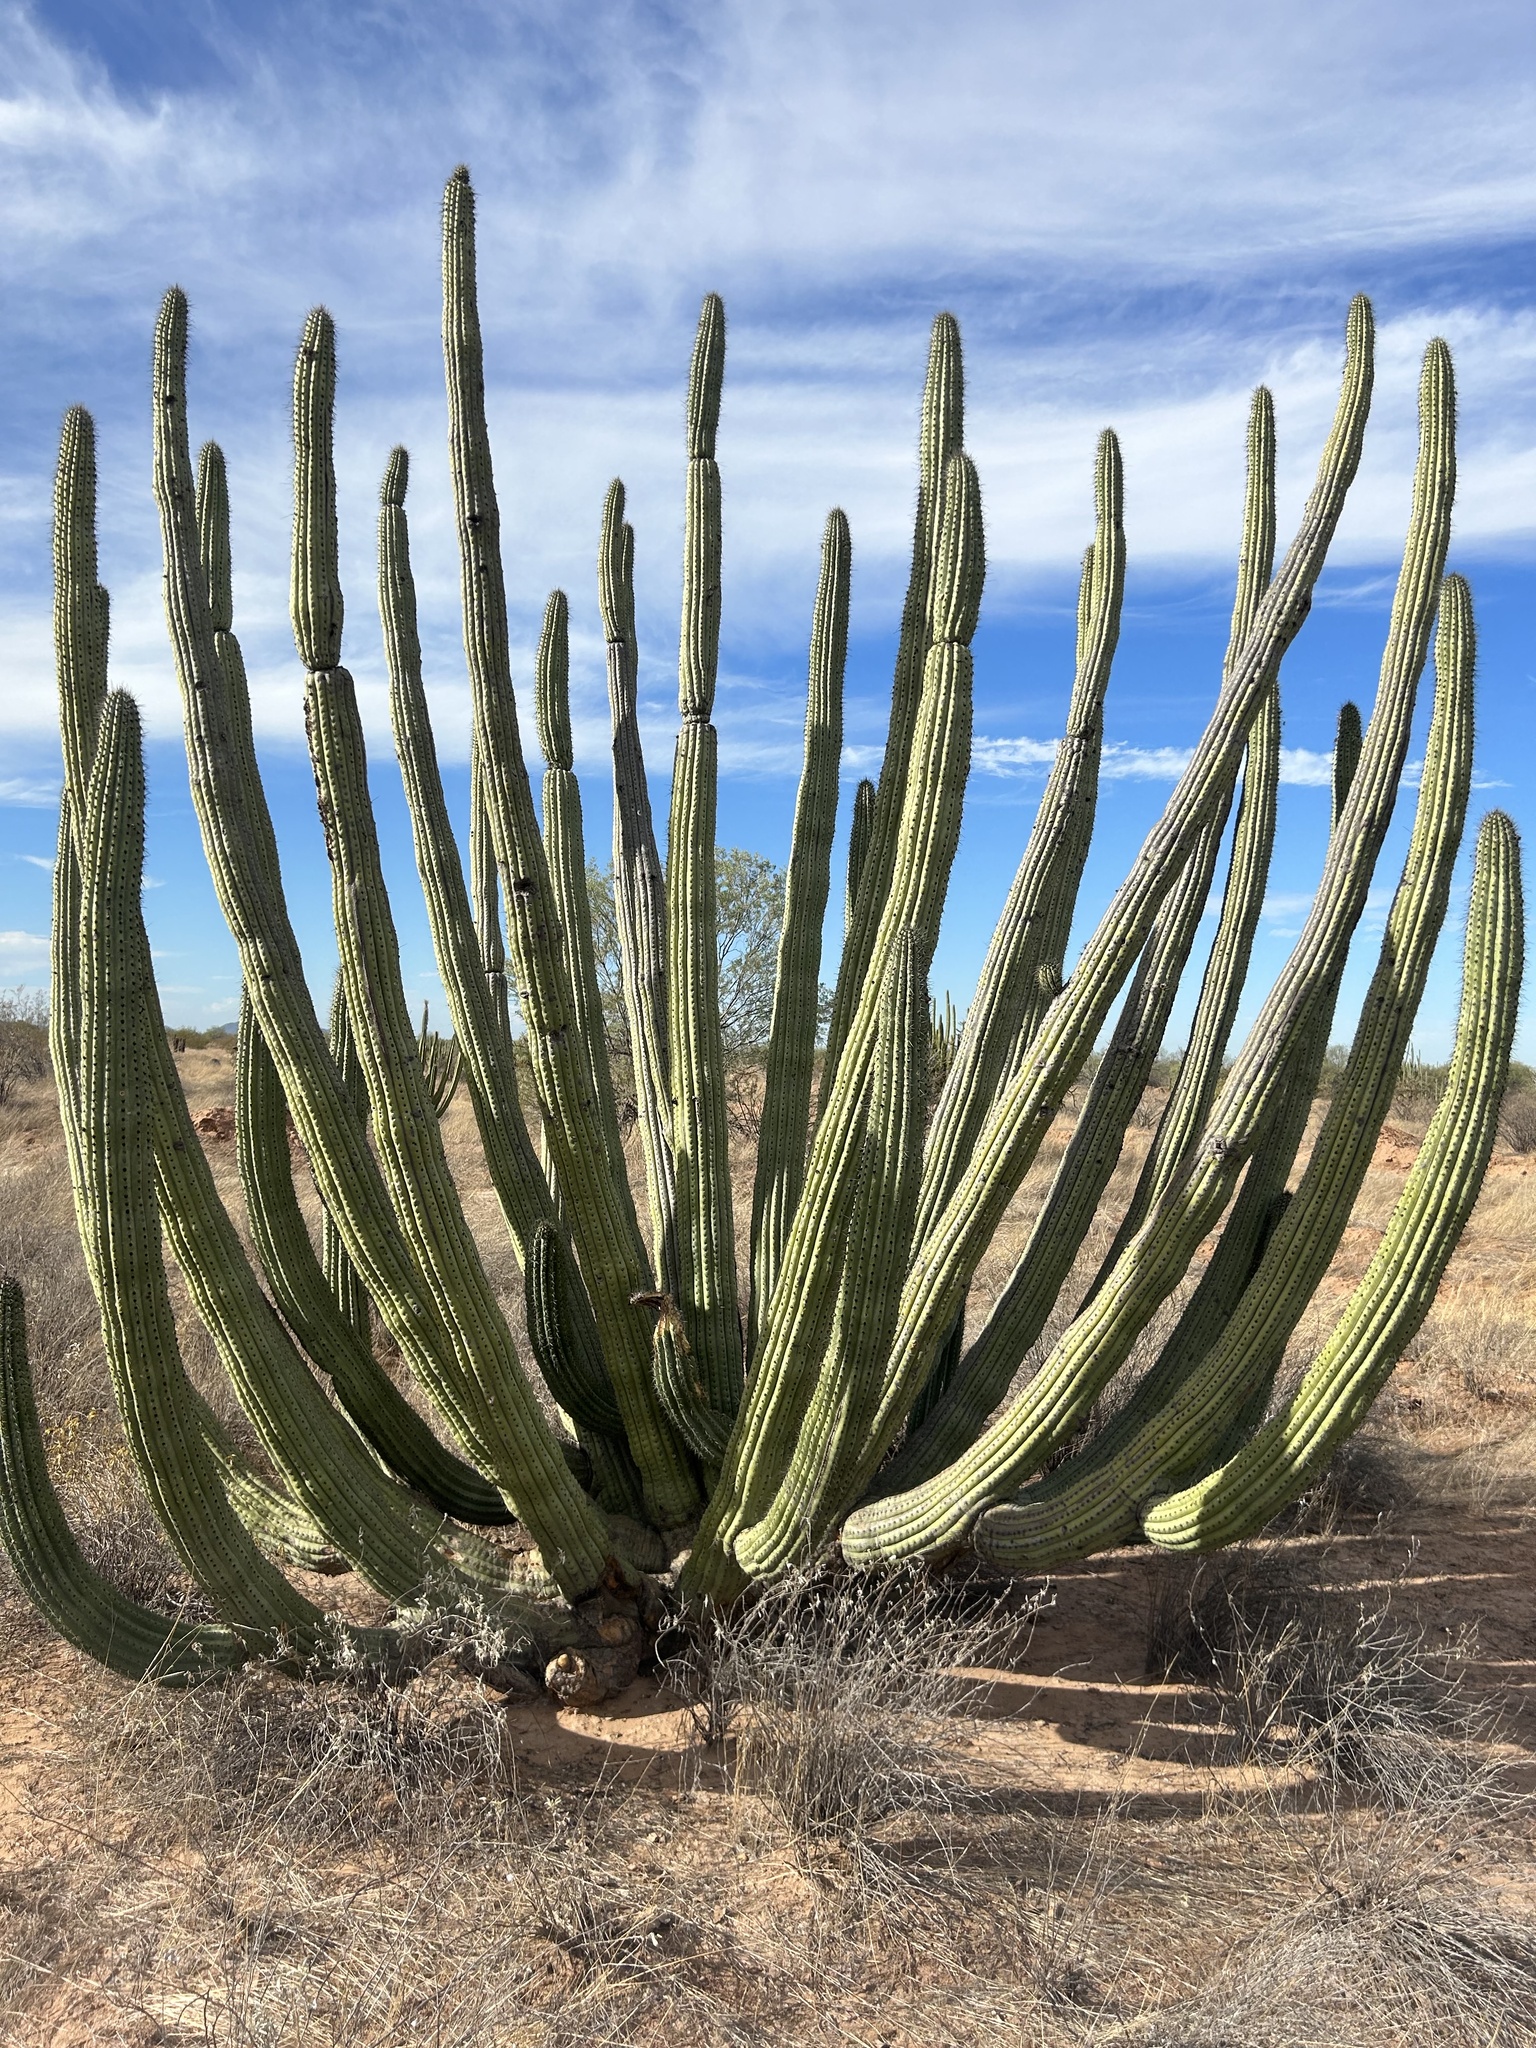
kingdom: Plantae
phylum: Tracheophyta
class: Magnoliopsida
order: Caryophyllales
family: Cactaceae
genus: Stenocereus
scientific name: Stenocereus thurberi
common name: Organ pipe cactus
